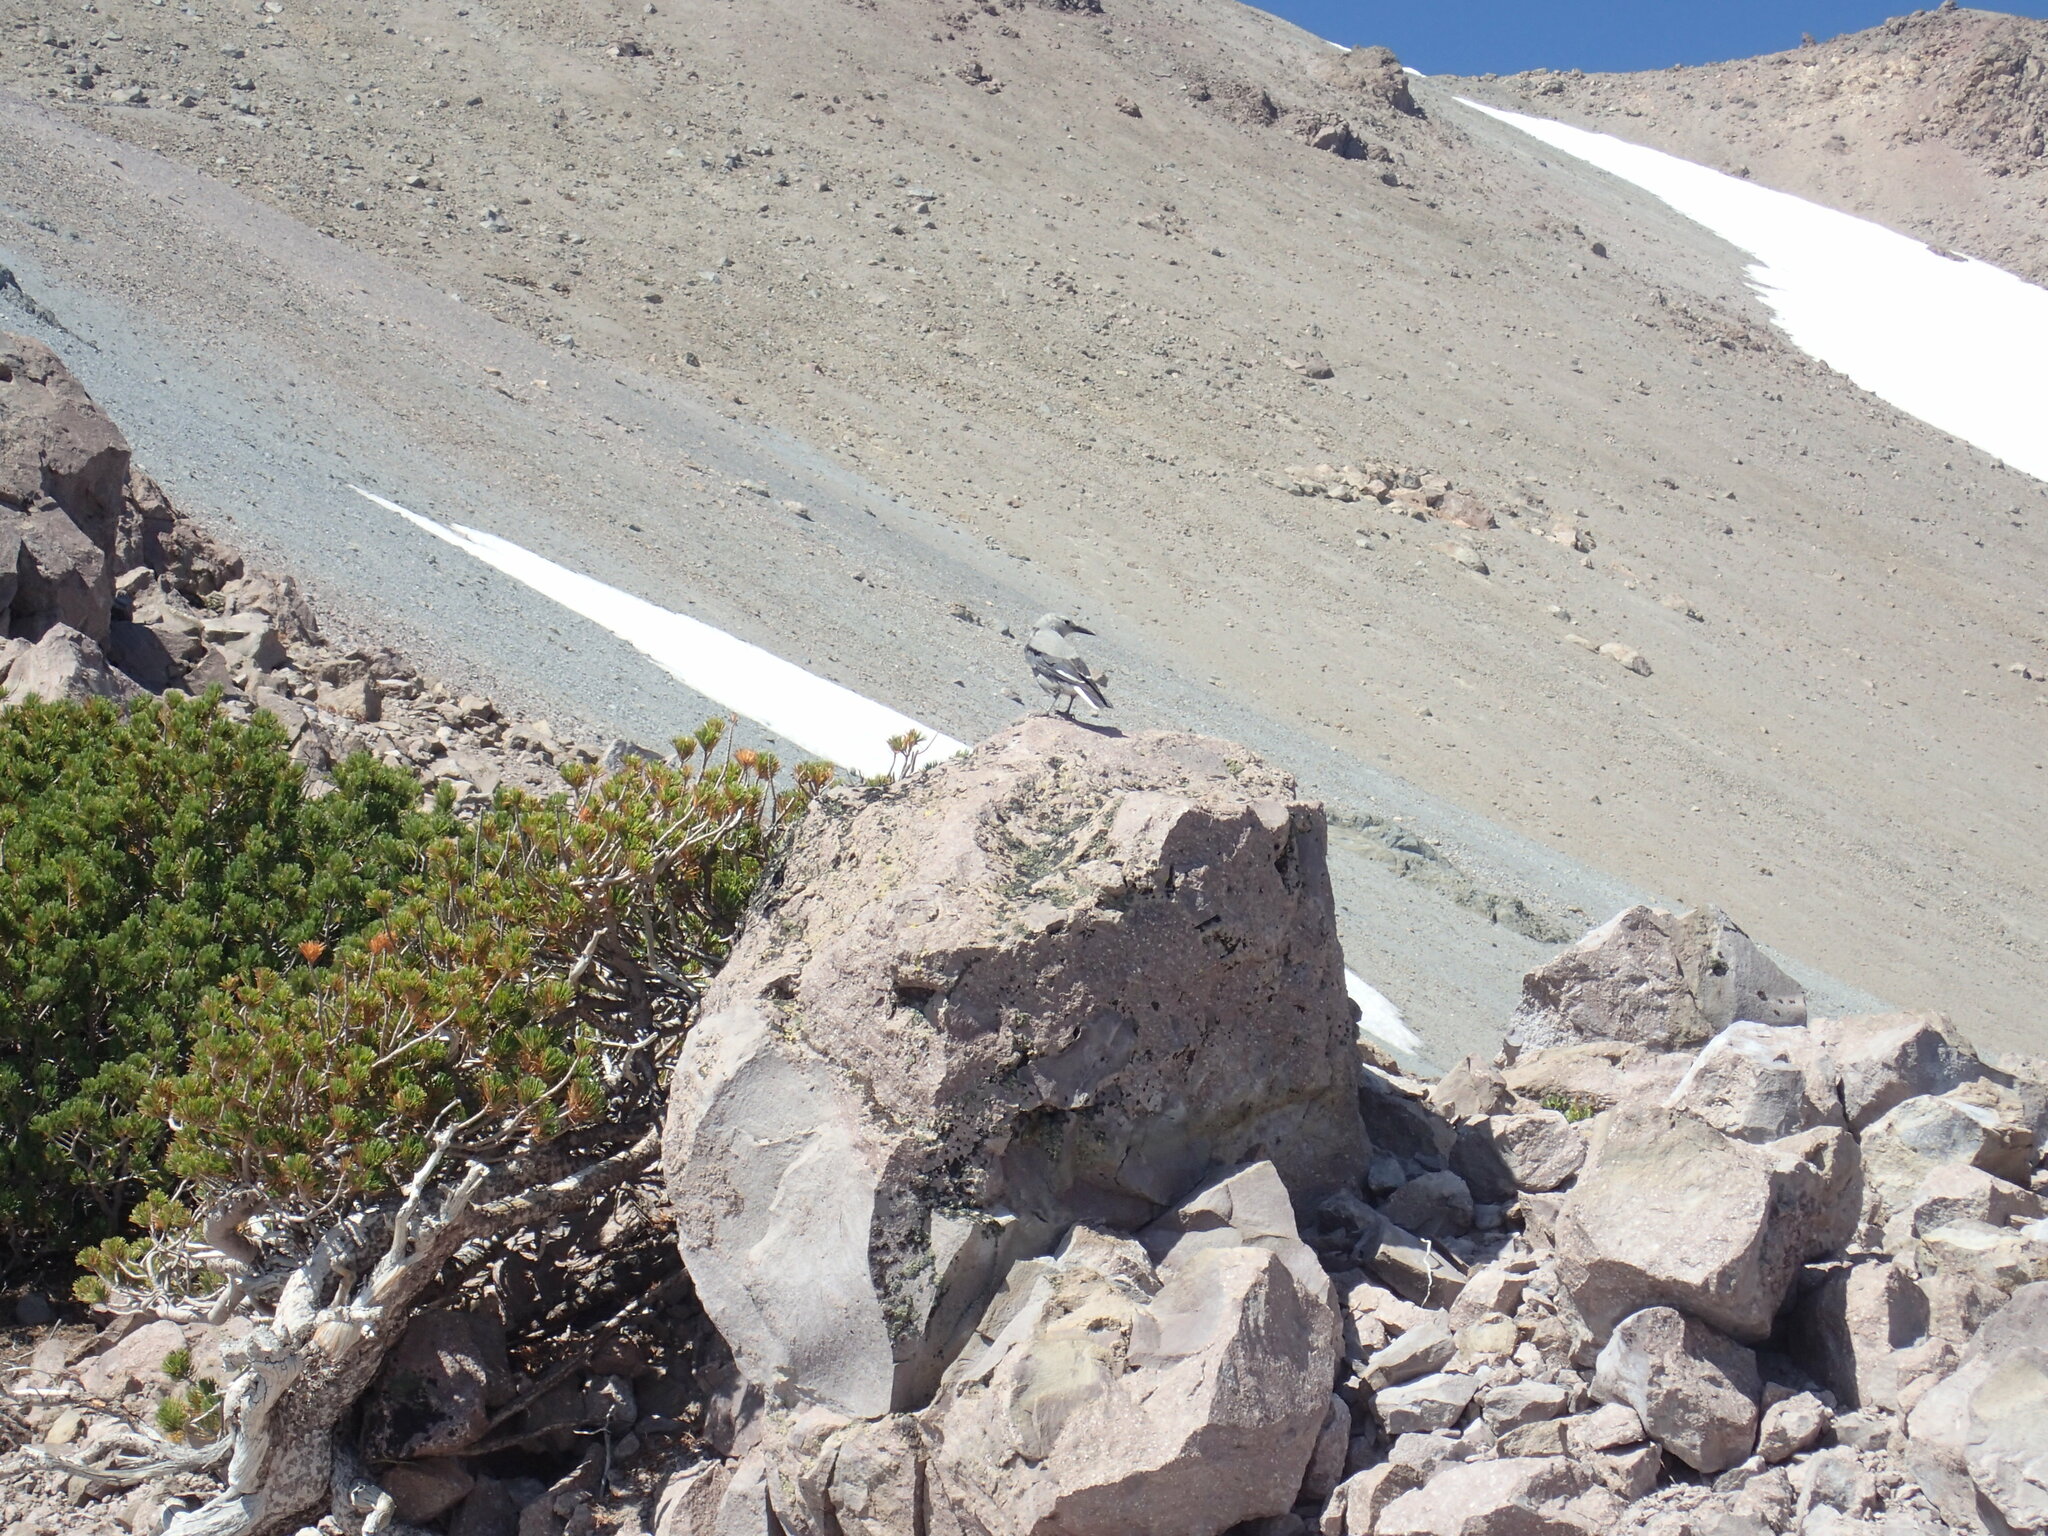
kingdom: Animalia
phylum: Chordata
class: Aves
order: Passeriformes
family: Corvidae
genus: Nucifraga
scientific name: Nucifraga columbiana
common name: Clark's nutcracker
